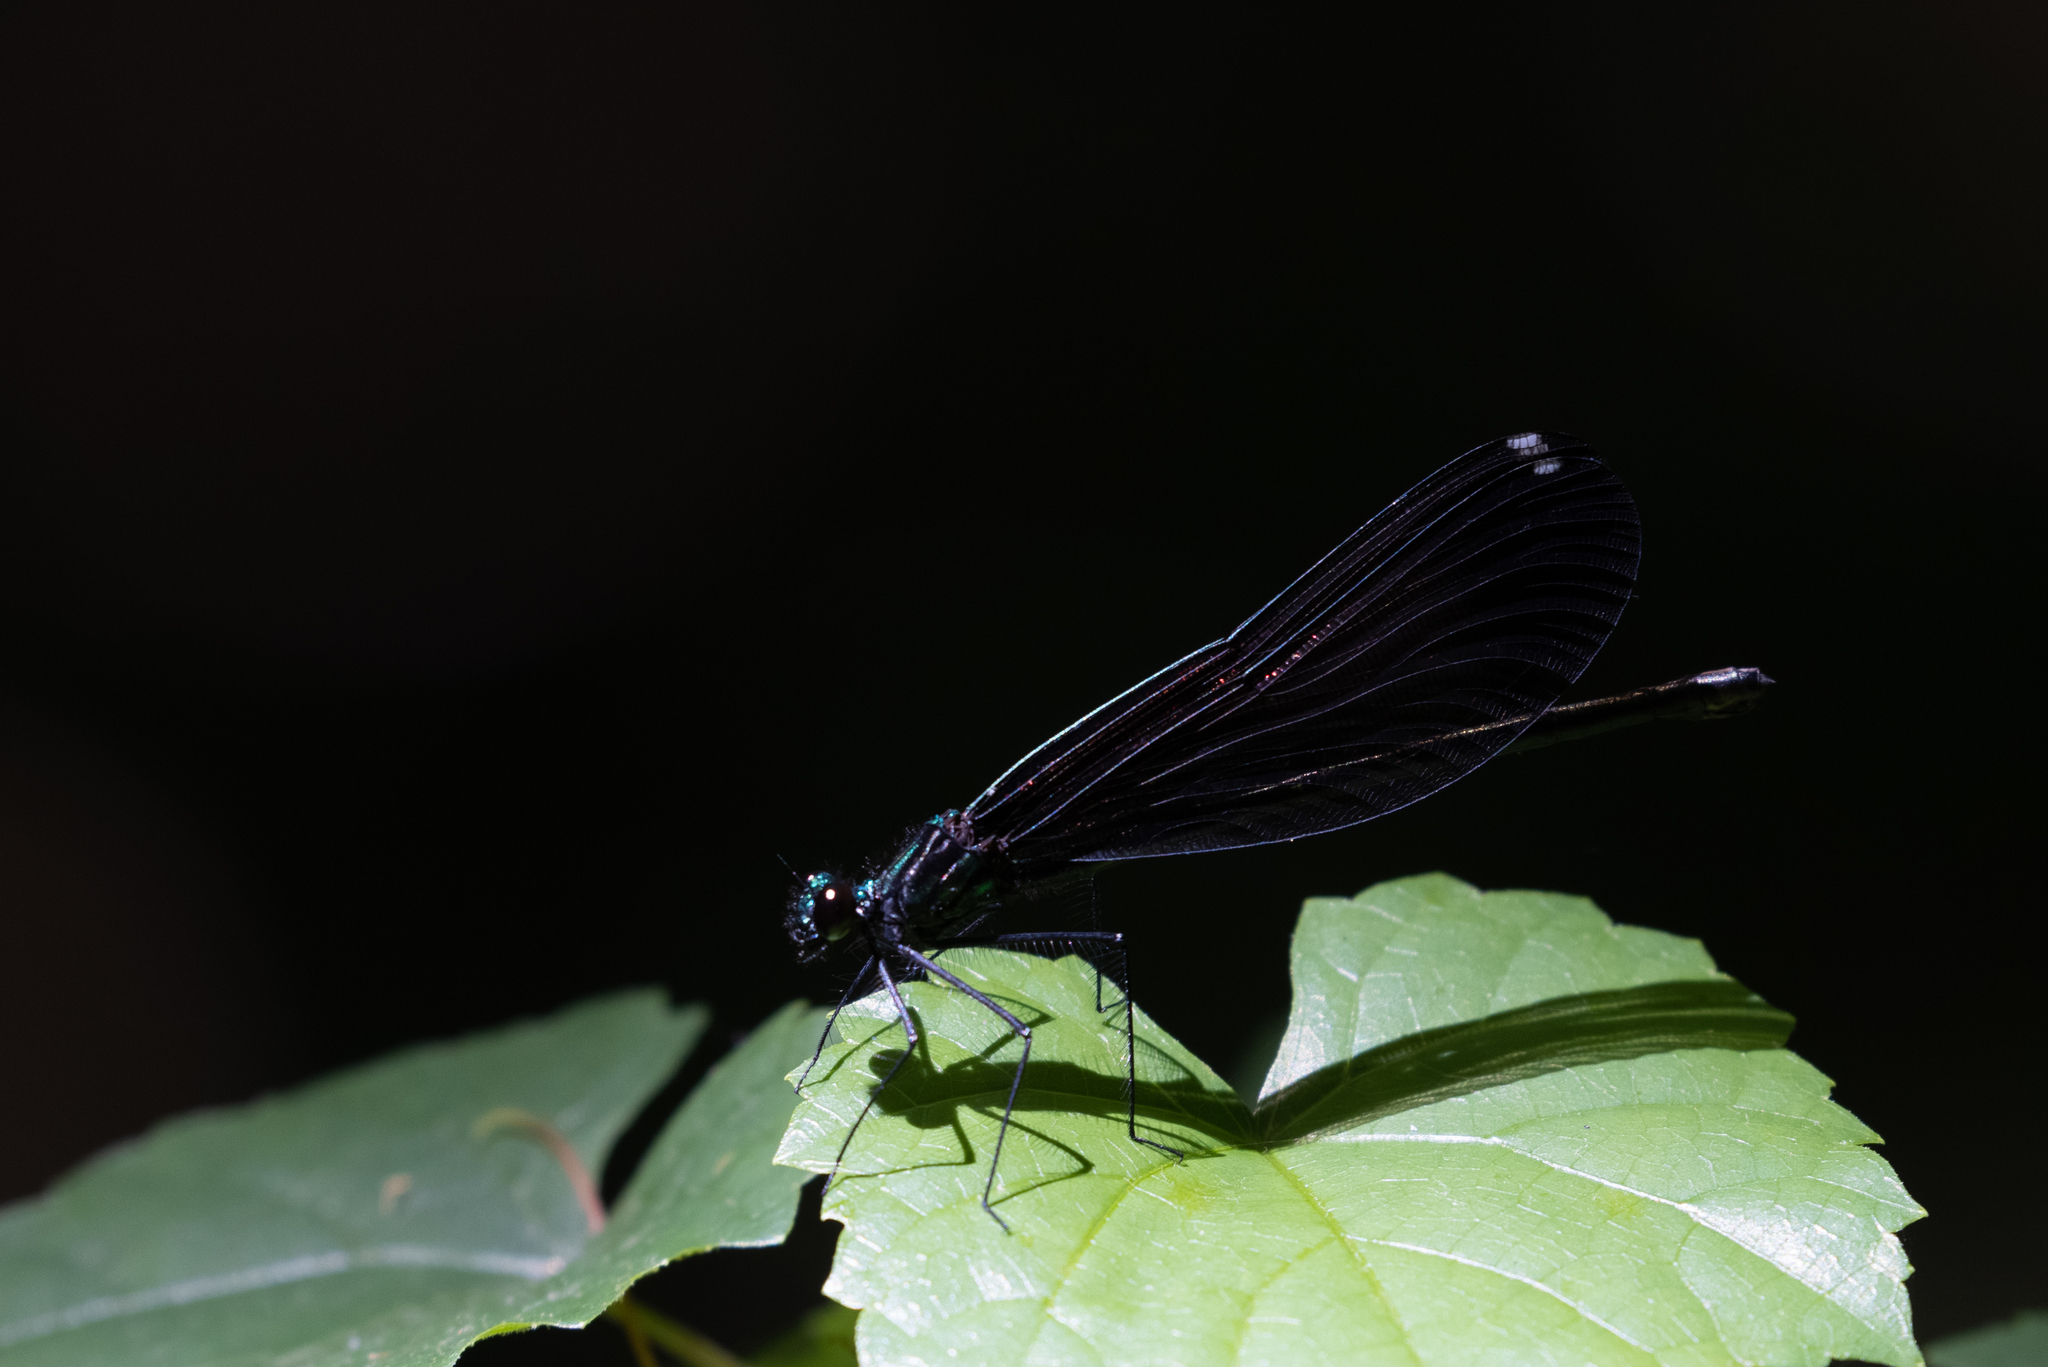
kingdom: Animalia
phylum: Arthropoda
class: Insecta
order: Odonata
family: Calopterygidae
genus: Calopteryx
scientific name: Calopteryx maculata
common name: Ebony jewelwing
